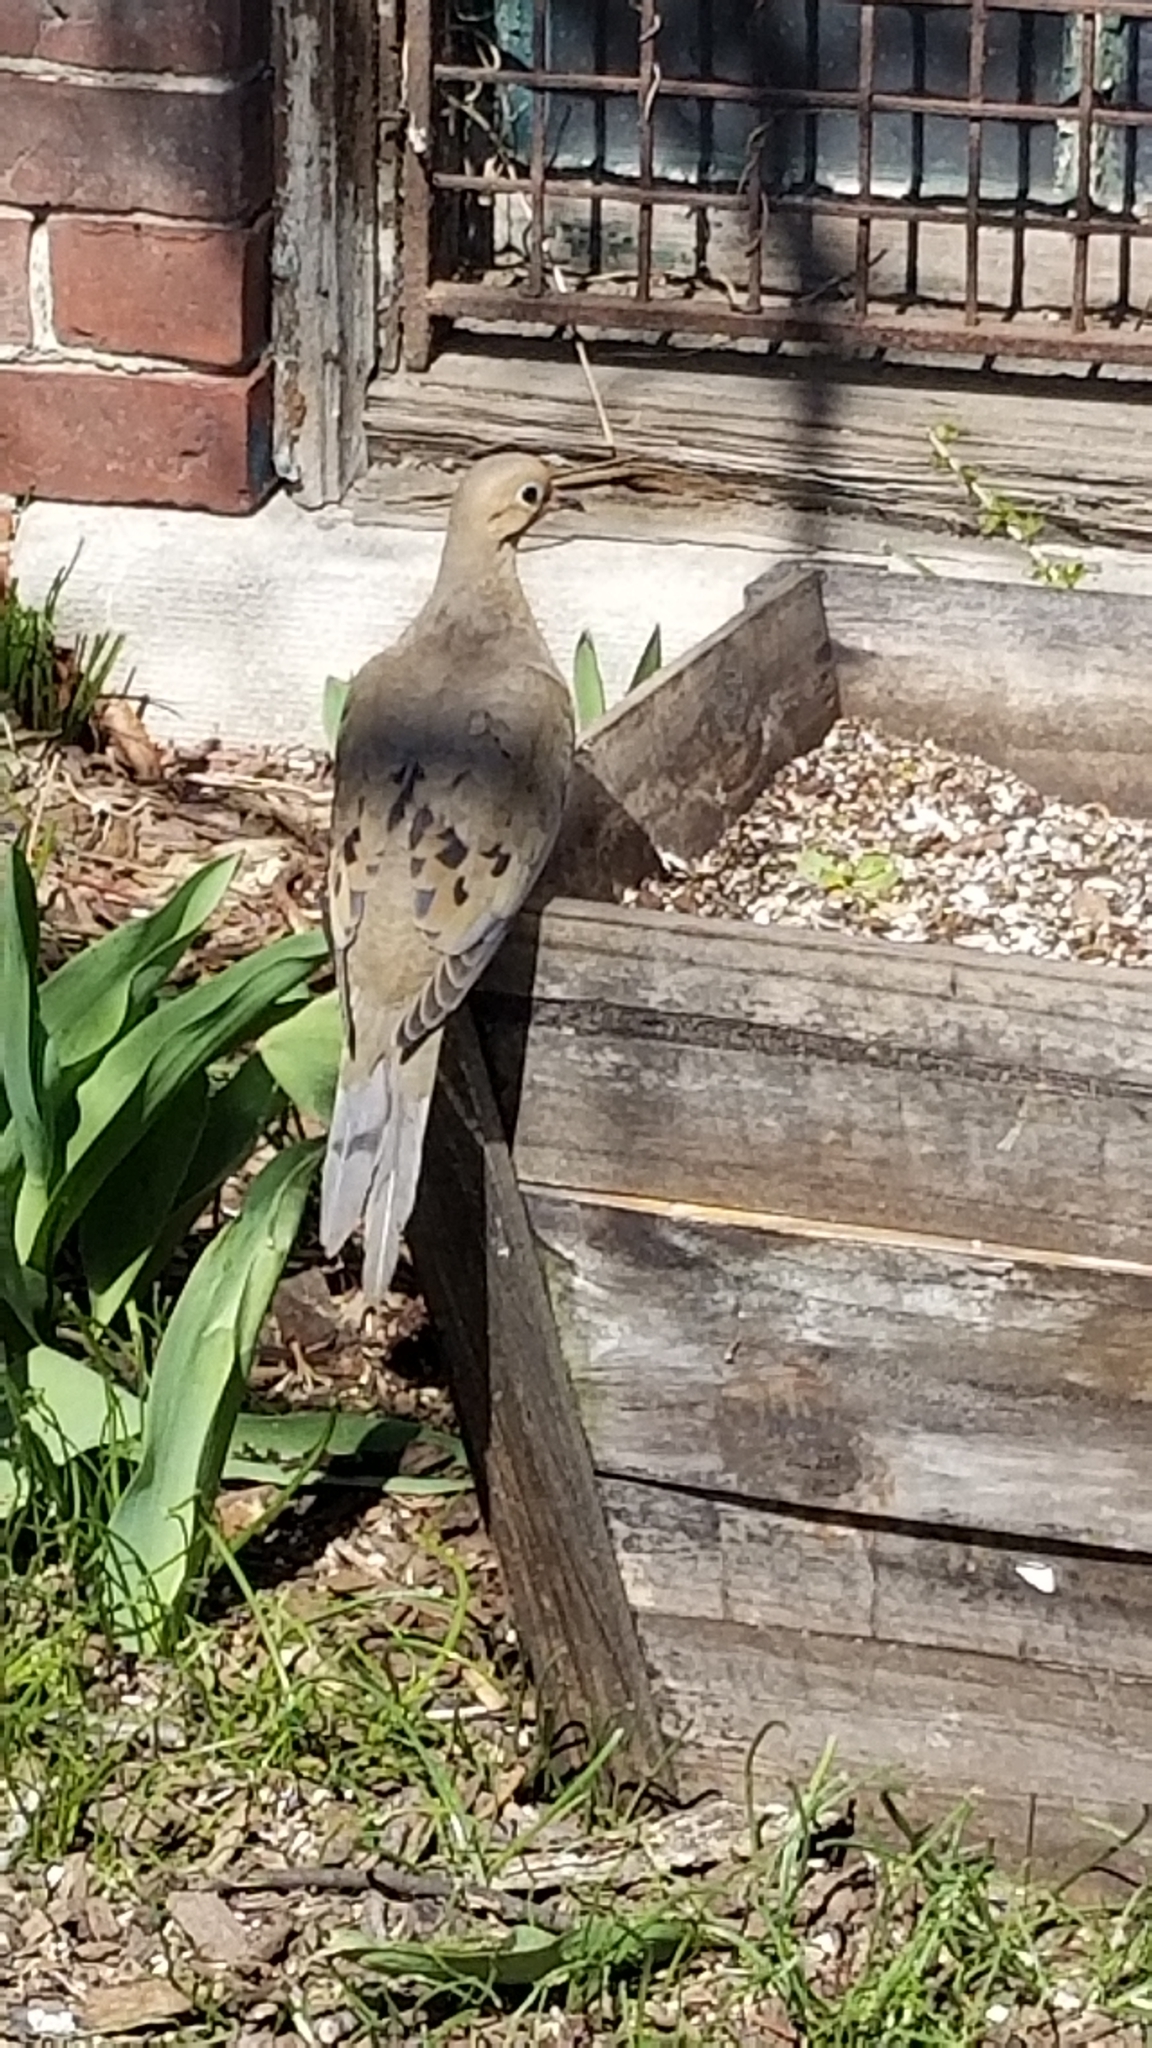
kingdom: Animalia
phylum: Chordata
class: Aves
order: Columbiformes
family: Columbidae
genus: Zenaida
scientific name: Zenaida macroura
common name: Mourning dove
